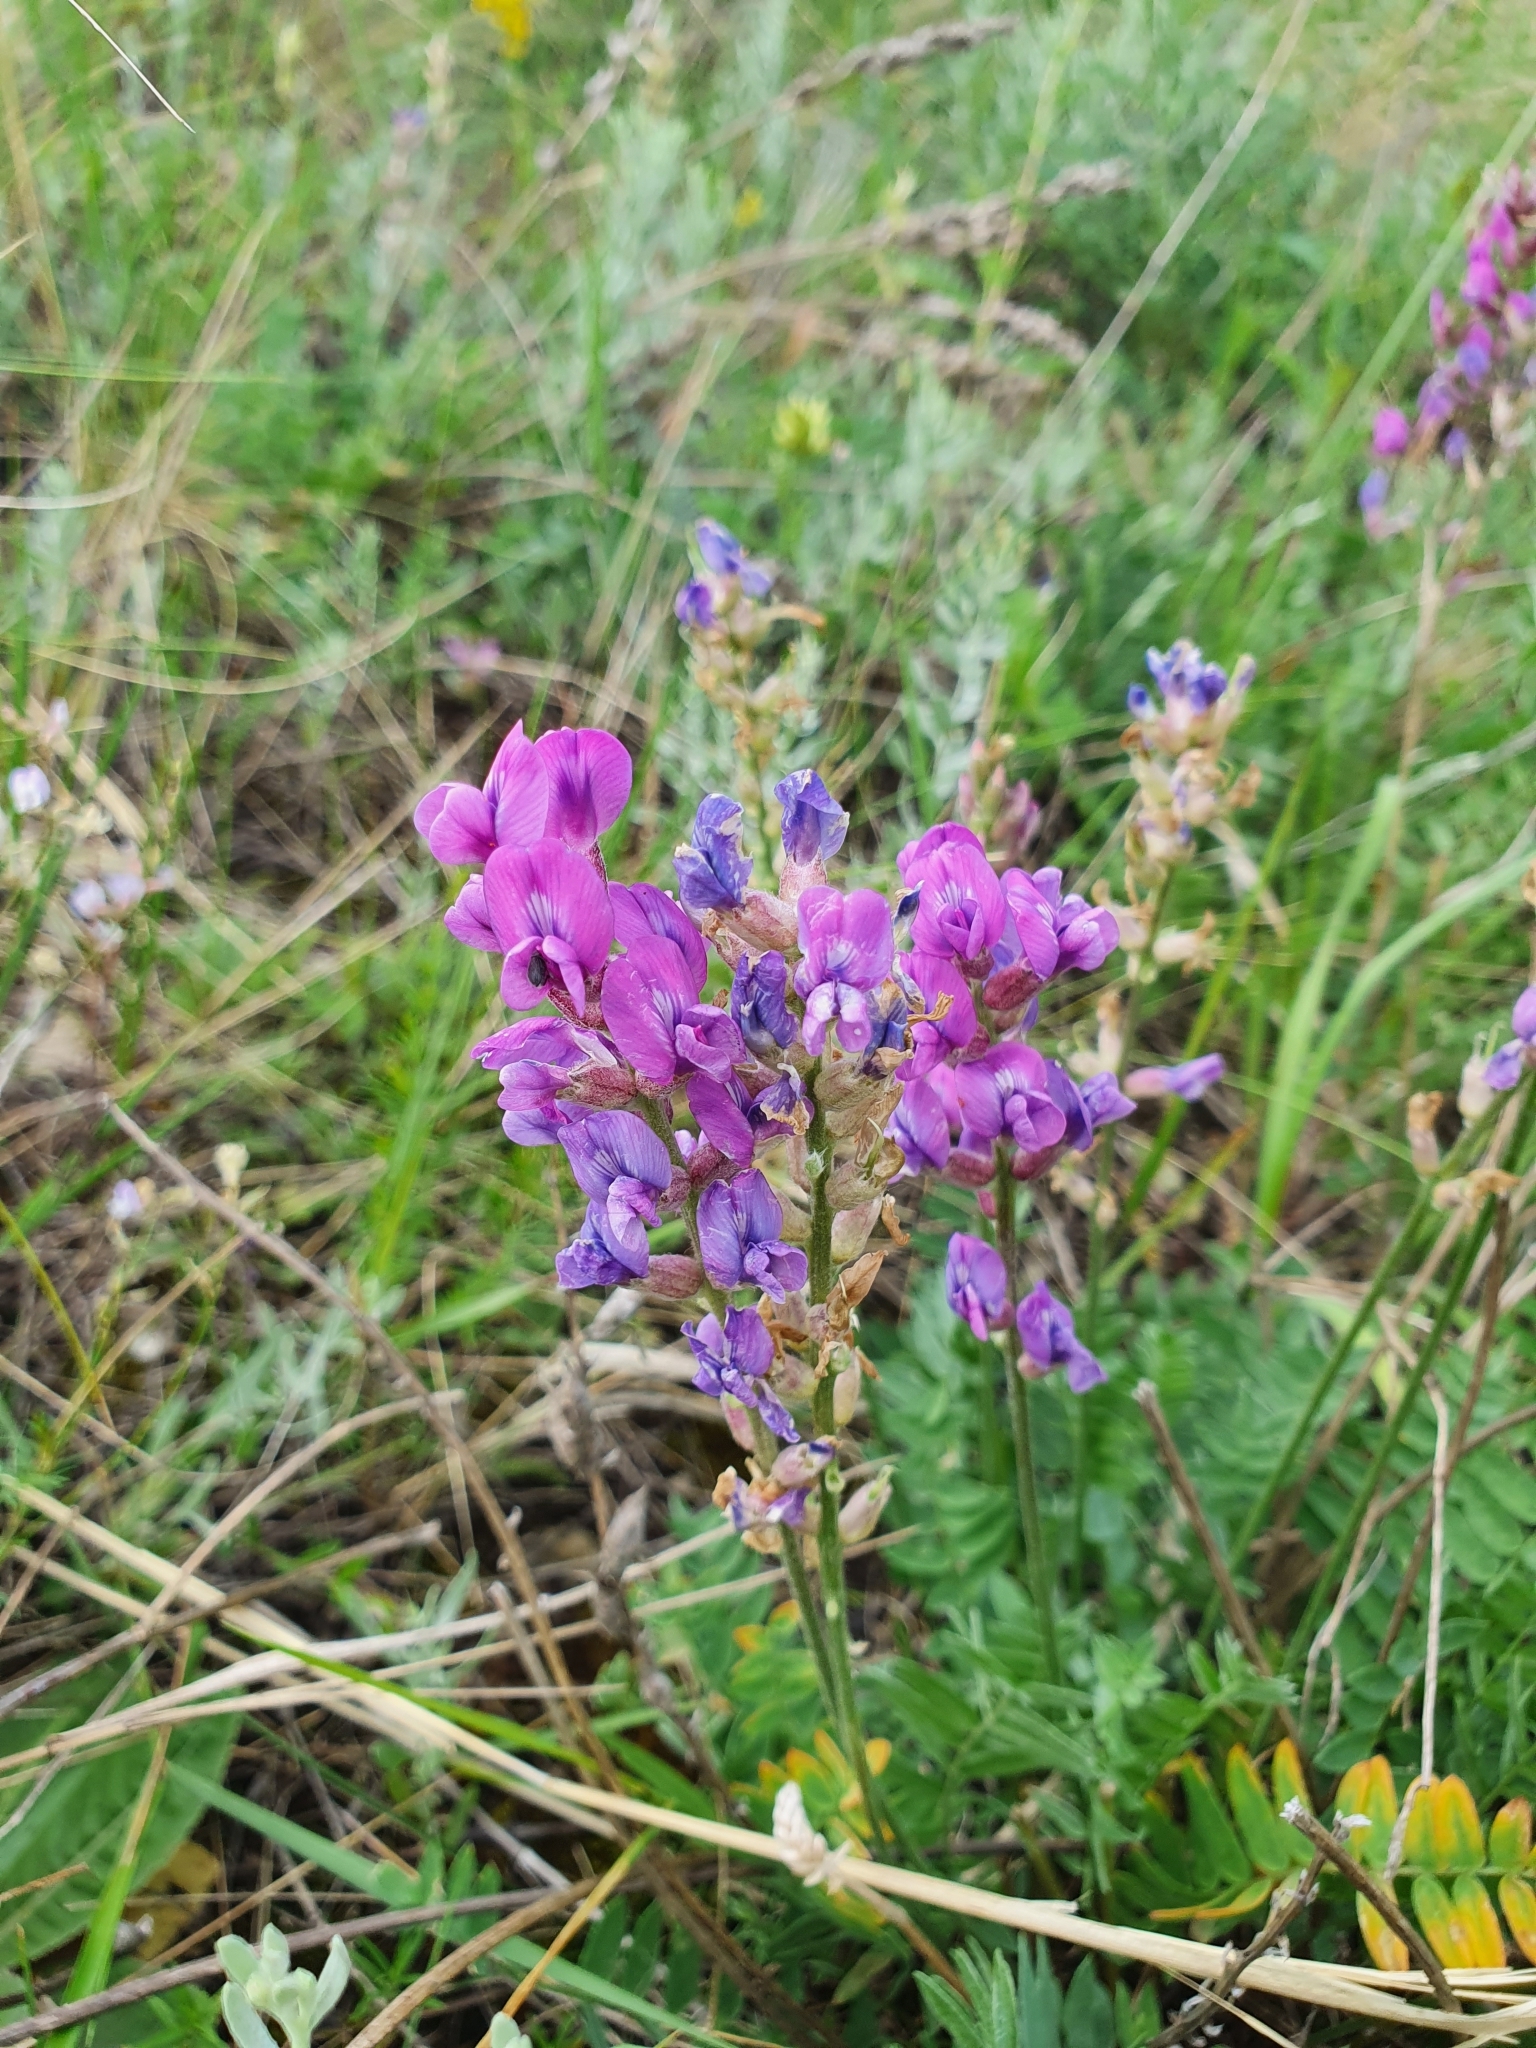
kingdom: Plantae
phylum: Tracheophyta
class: Magnoliopsida
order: Fabales
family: Fabaceae
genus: Oxytropis
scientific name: Oxytropis knjazevii
